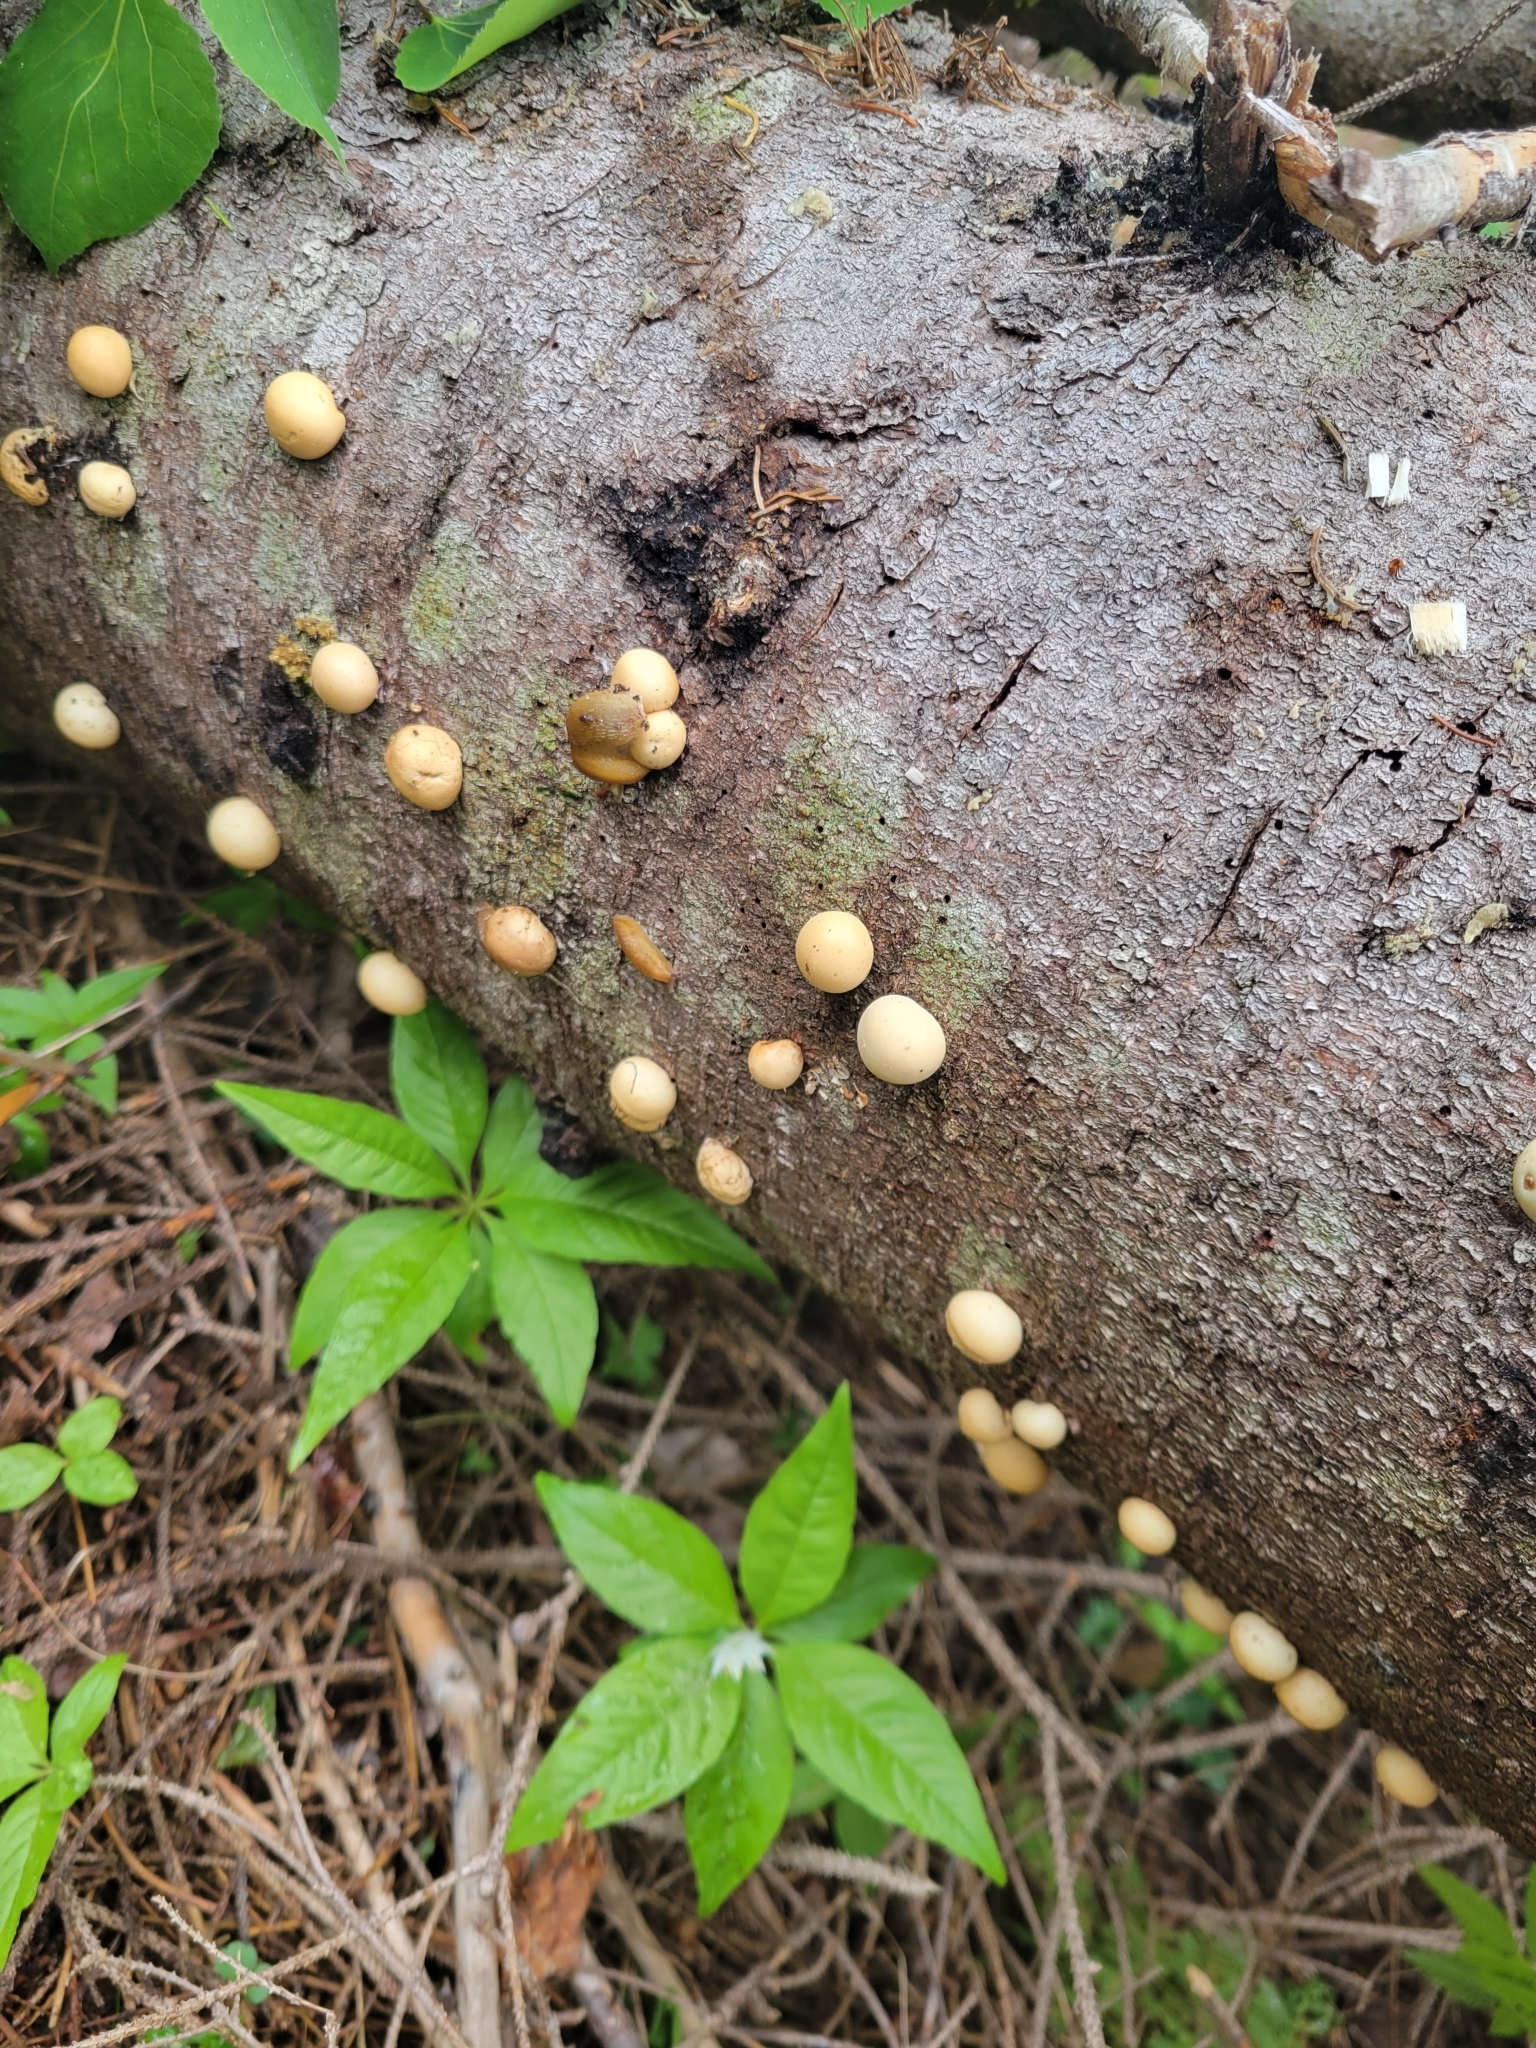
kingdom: Fungi
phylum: Basidiomycota
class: Agaricomycetes
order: Polyporales
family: Polyporaceae
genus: Cryptoporus
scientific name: Cryptoporus volvatus
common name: Veiled polypore
